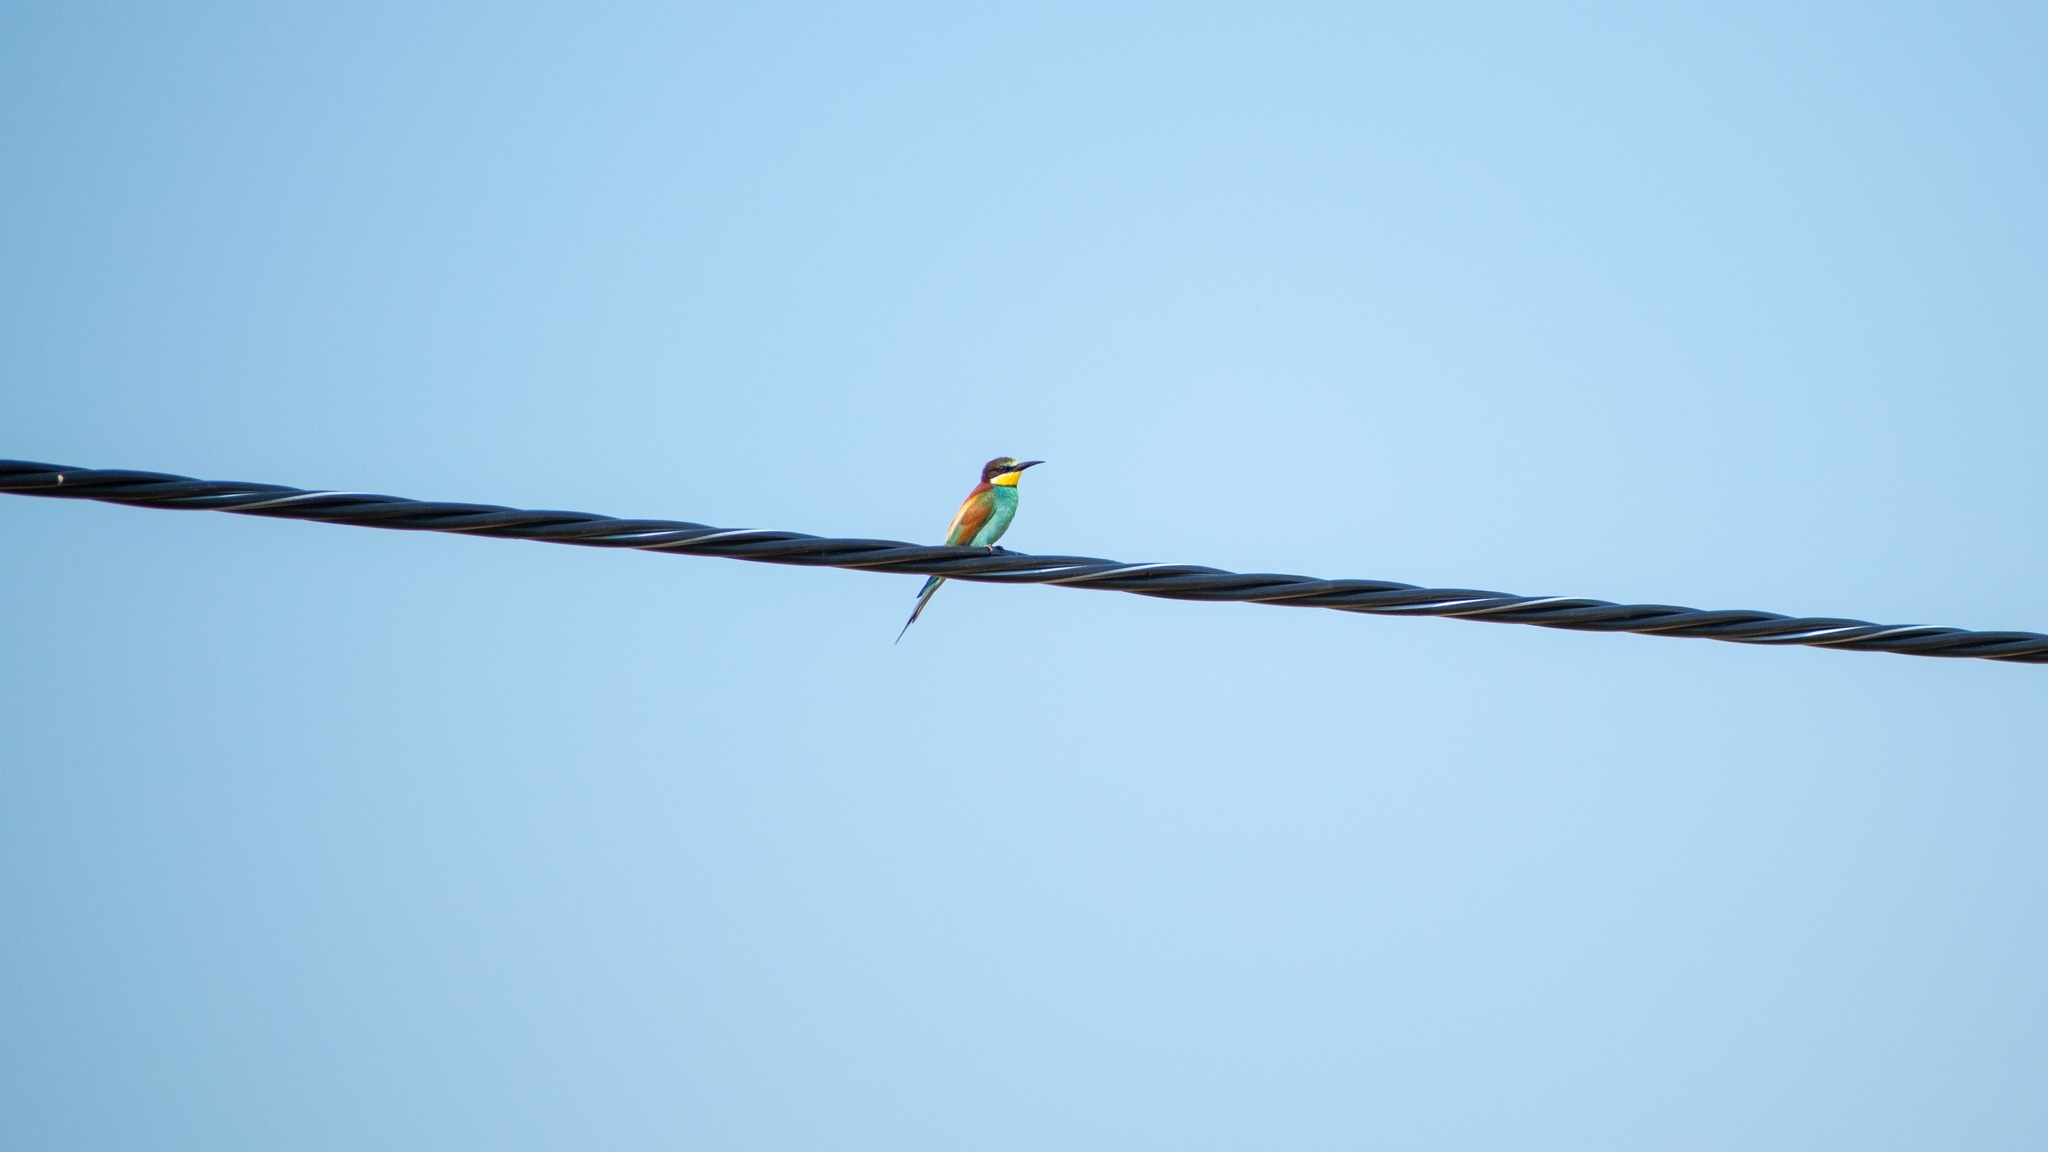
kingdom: Animalia
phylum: Chordata
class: Aves
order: Coraciiformes
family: Meropidae
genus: Merops
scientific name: Merops apiaster
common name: European bee-eater
